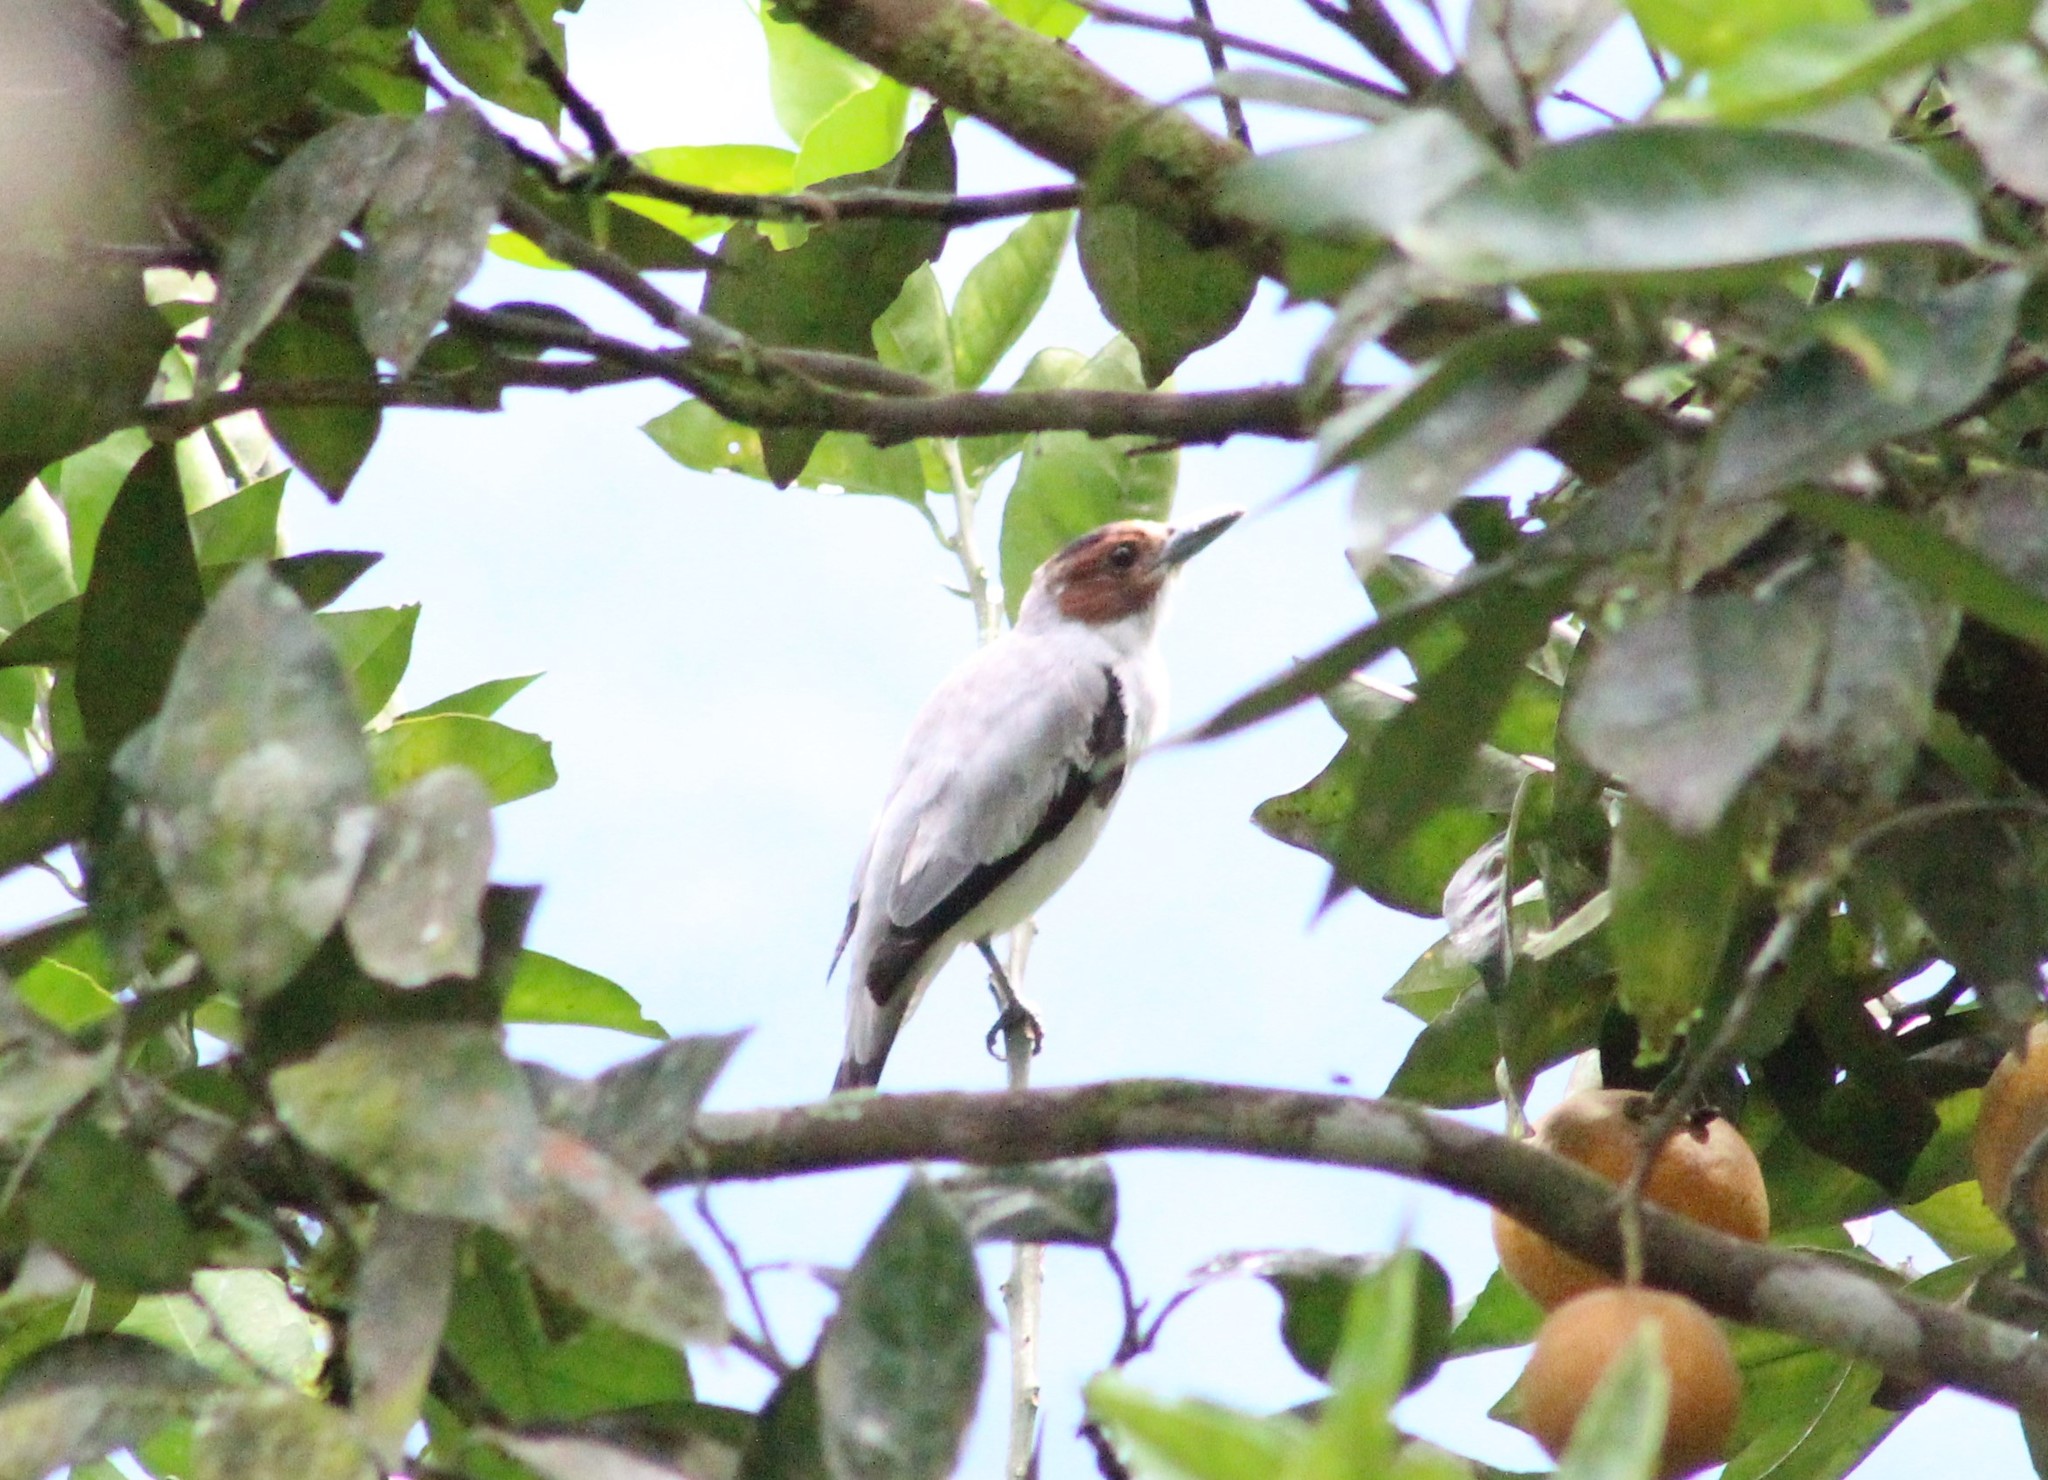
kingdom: Animalia
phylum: Chordata
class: Aves
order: Passeriformes
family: Cotingidae
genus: Tityra
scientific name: Tityra inquisitor
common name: Black-crowned tityra
